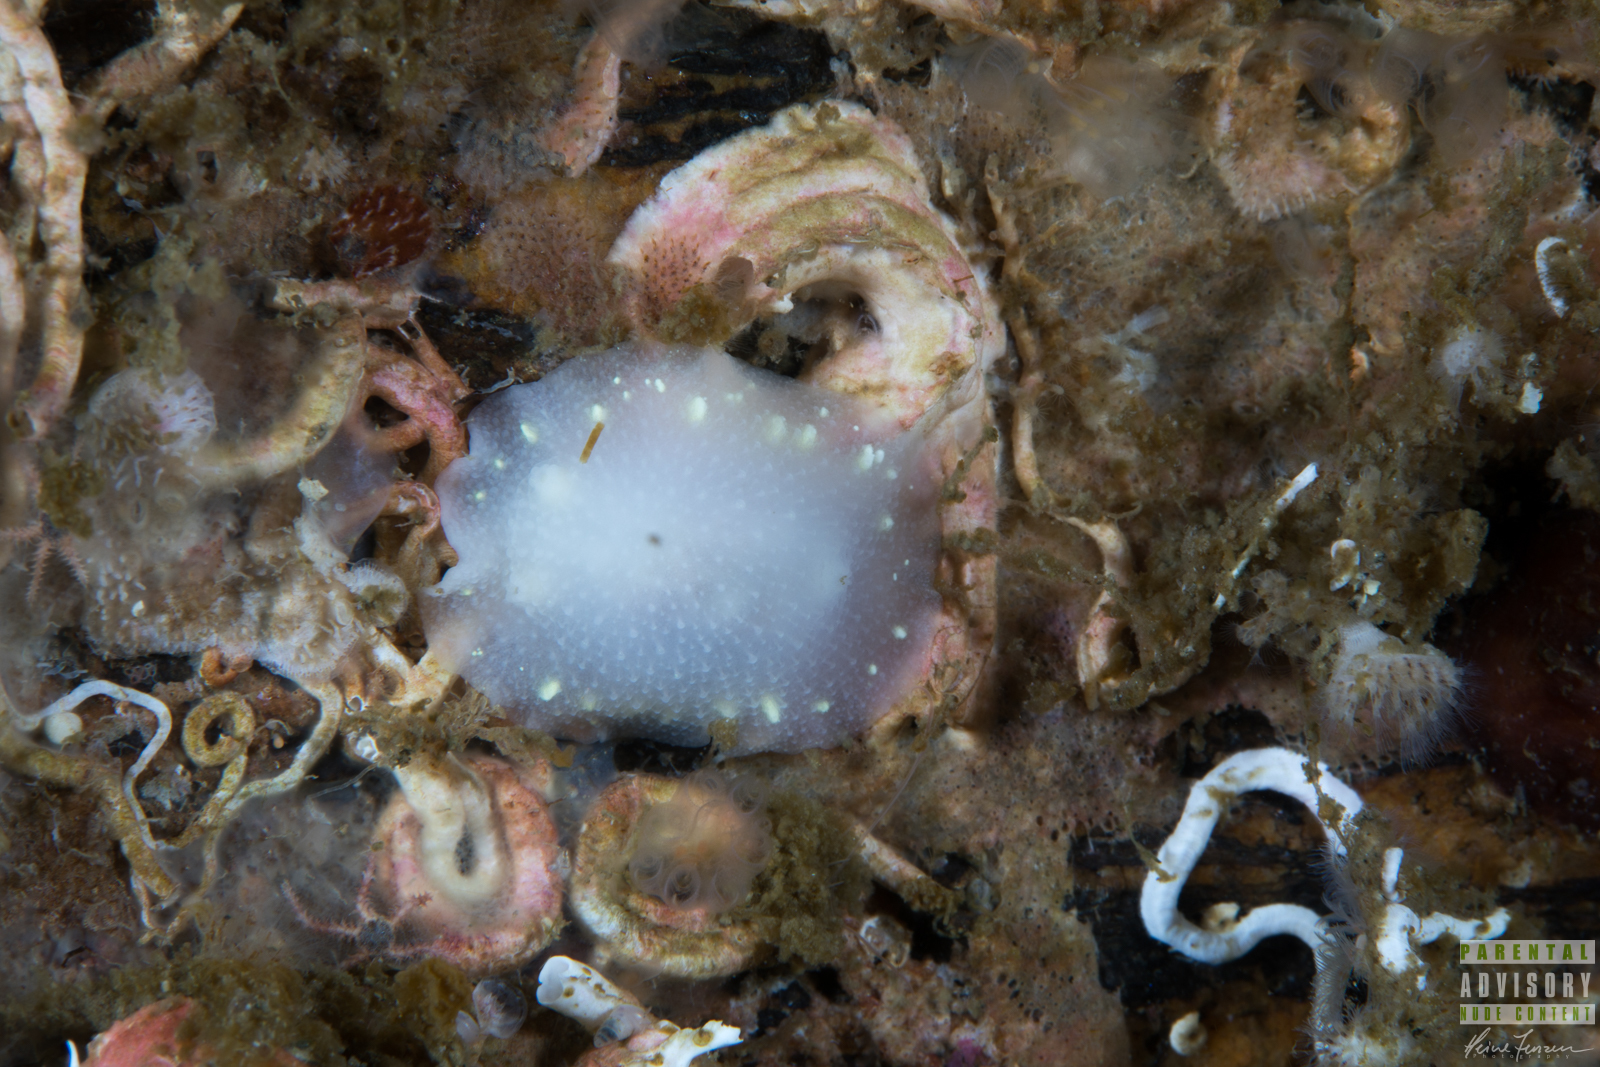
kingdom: Animalia
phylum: Mollusca
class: Gastropoda
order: Nudibranchia
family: Cadlinidae
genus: Cadlina
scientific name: Cadlina laevis
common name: White atlantic cadlina
